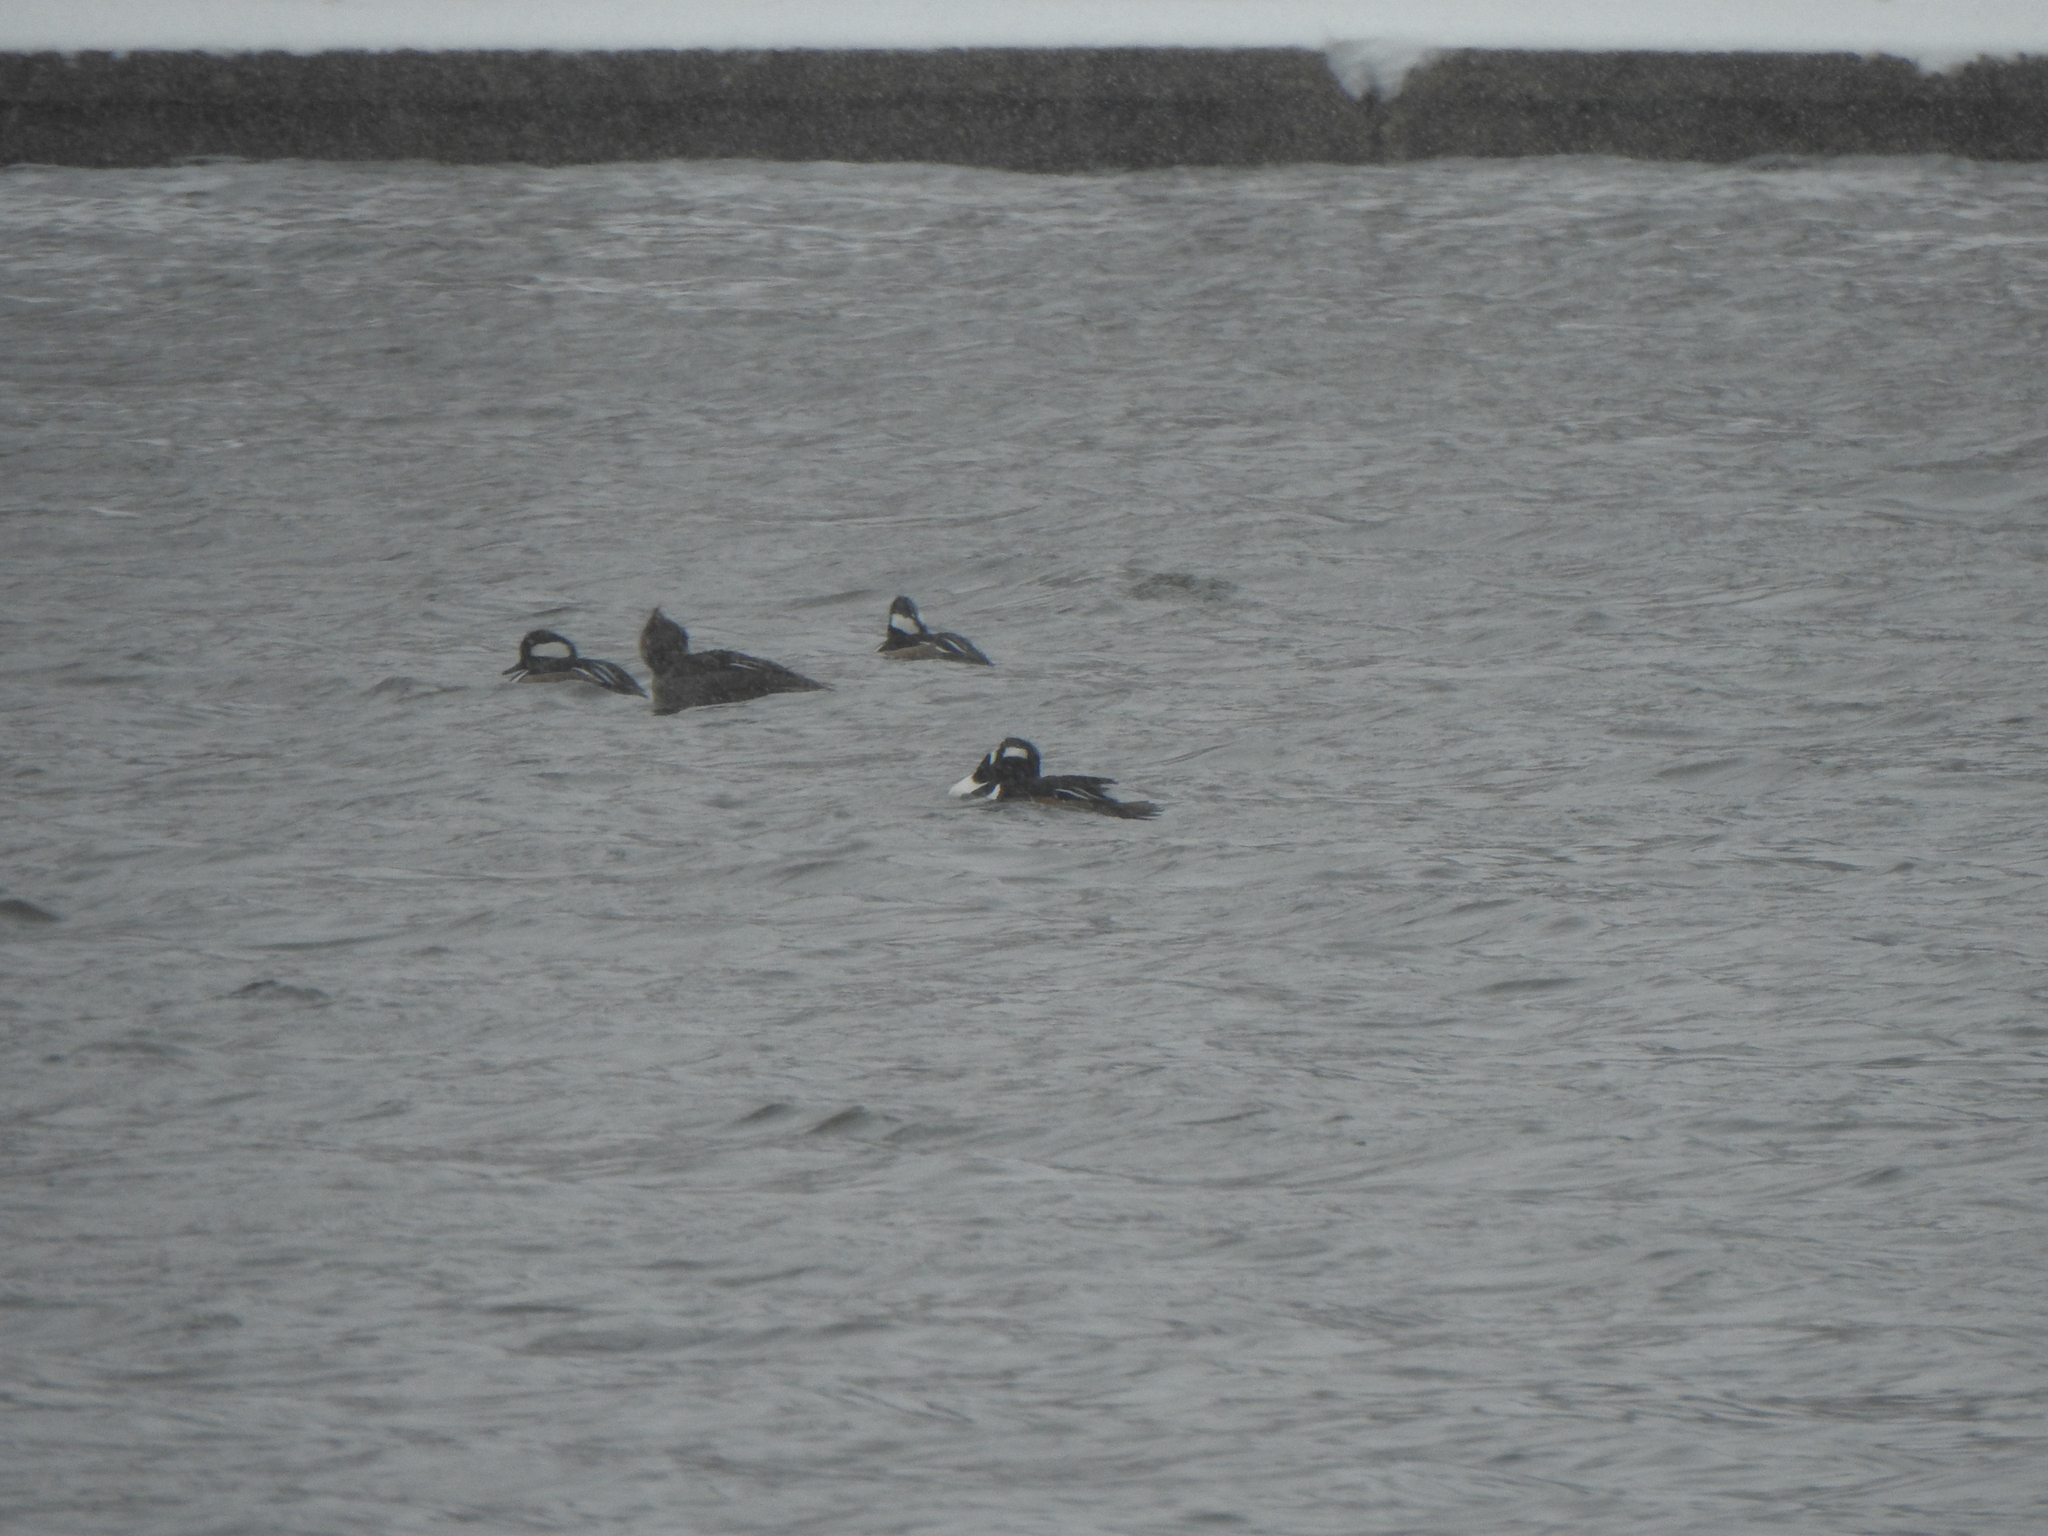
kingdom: Animalia
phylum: Chordata
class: Aves
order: Anseriformes
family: Anatidae
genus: Lophodytes
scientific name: Lophodytes cucullatus
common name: Hooded merganser
